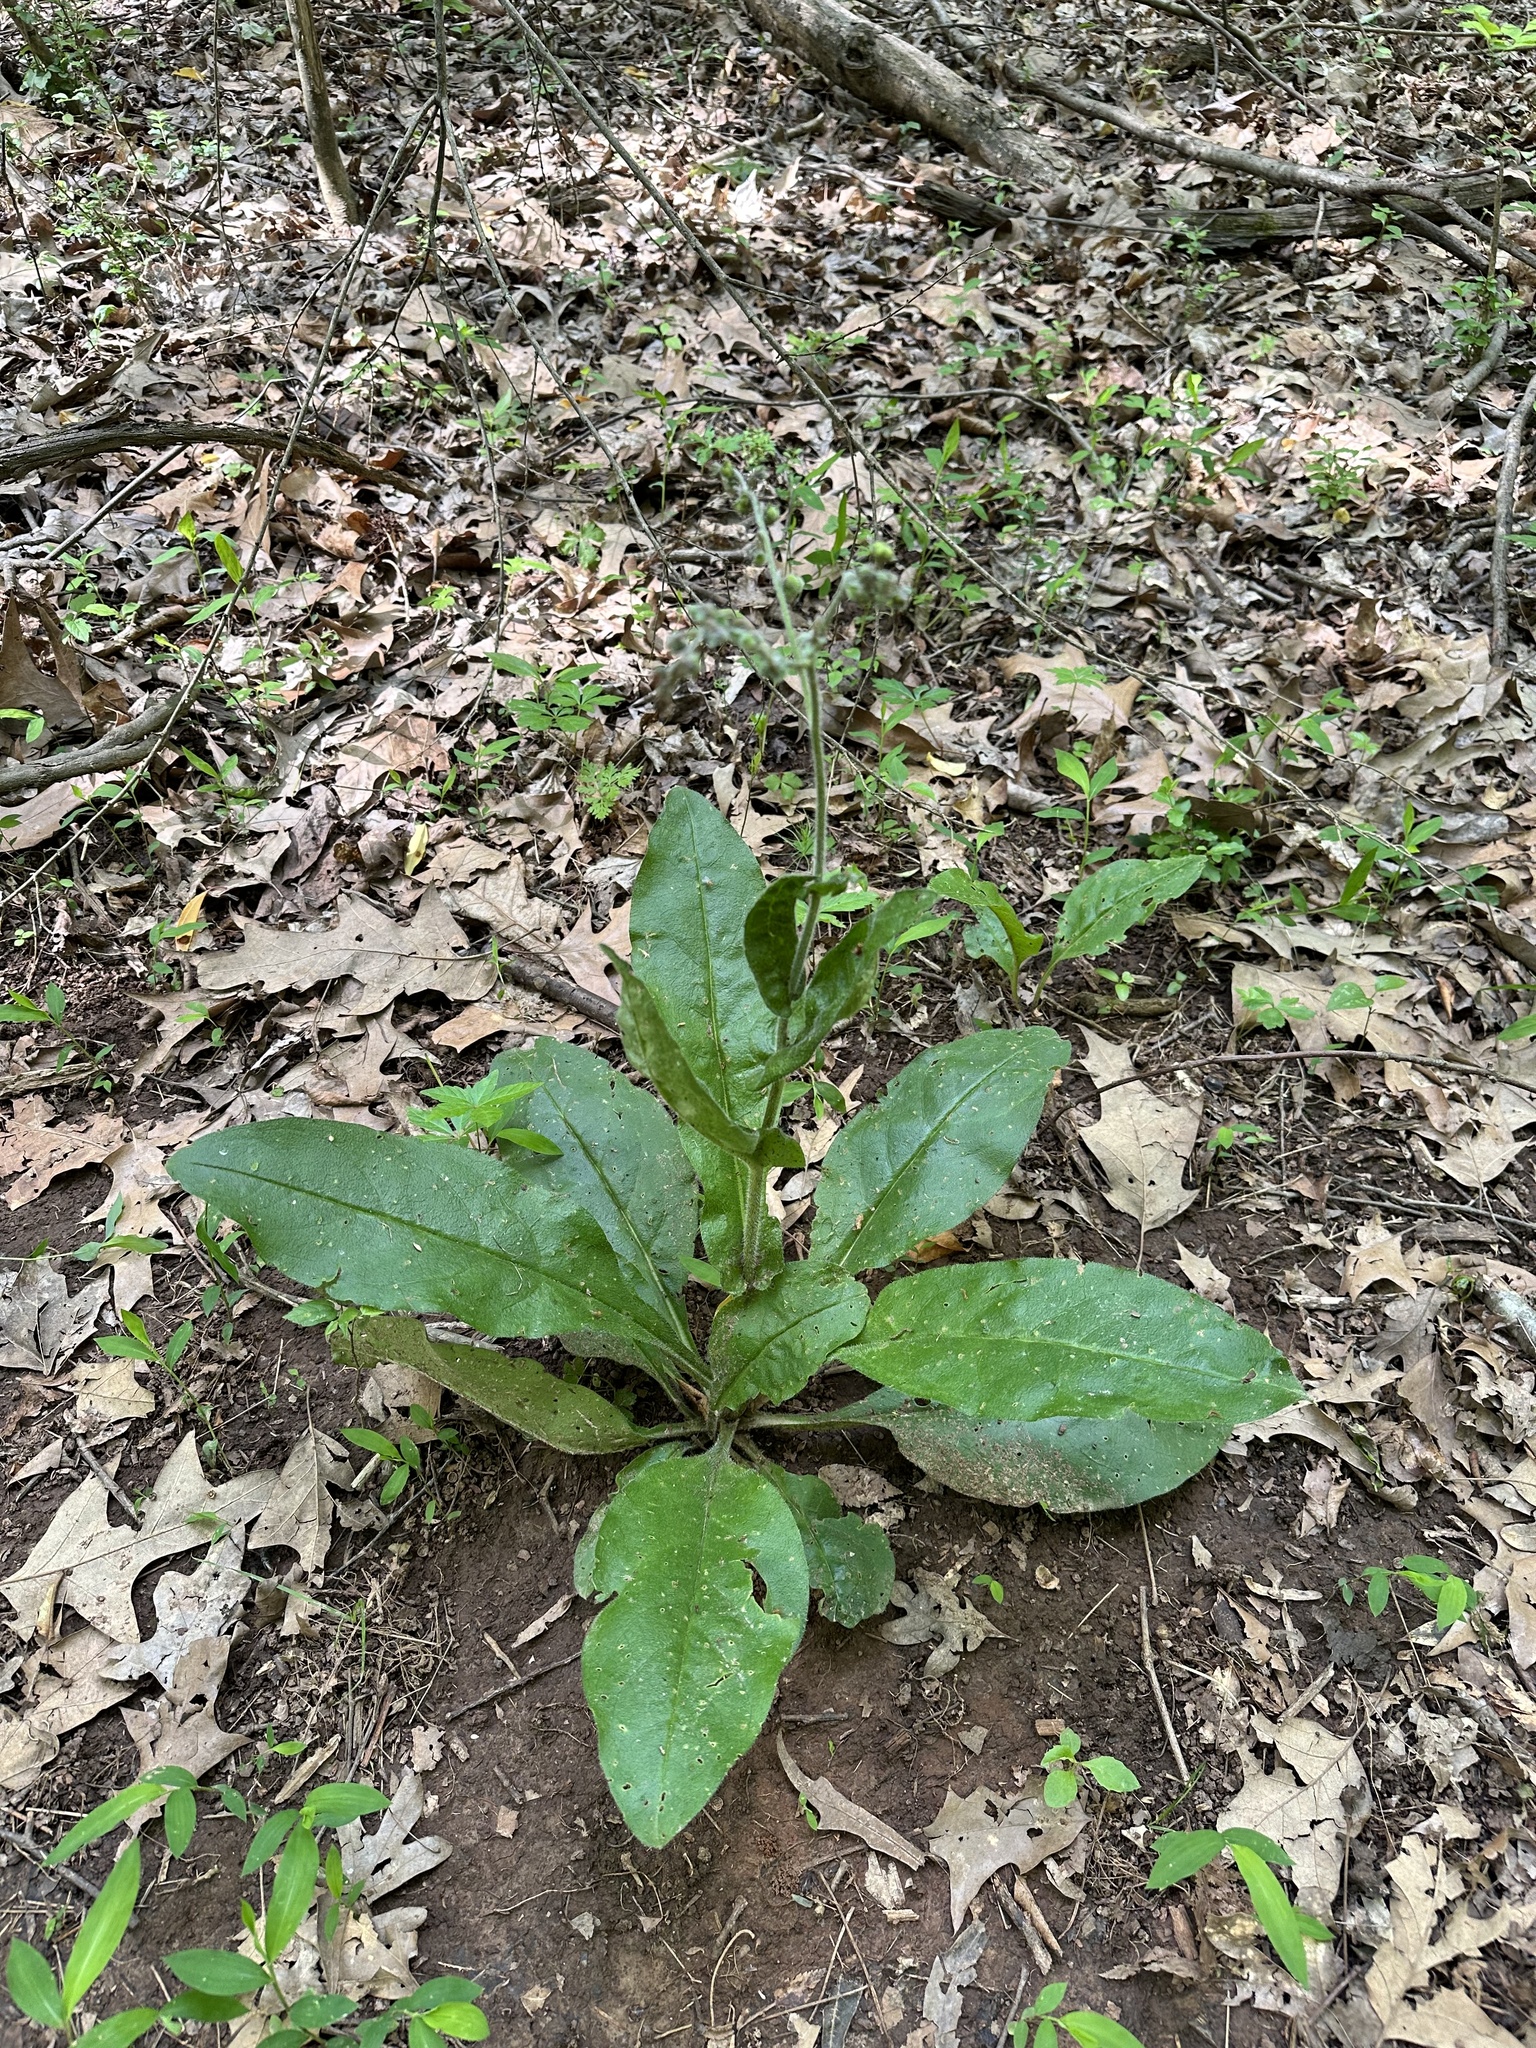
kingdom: Plantae
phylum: Tracheophyta
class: Magnoliopsida
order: Boraginales
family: Boraginaceae
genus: Andersonglossum
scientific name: Andersonglossum virginianum
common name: Wild comfrey
